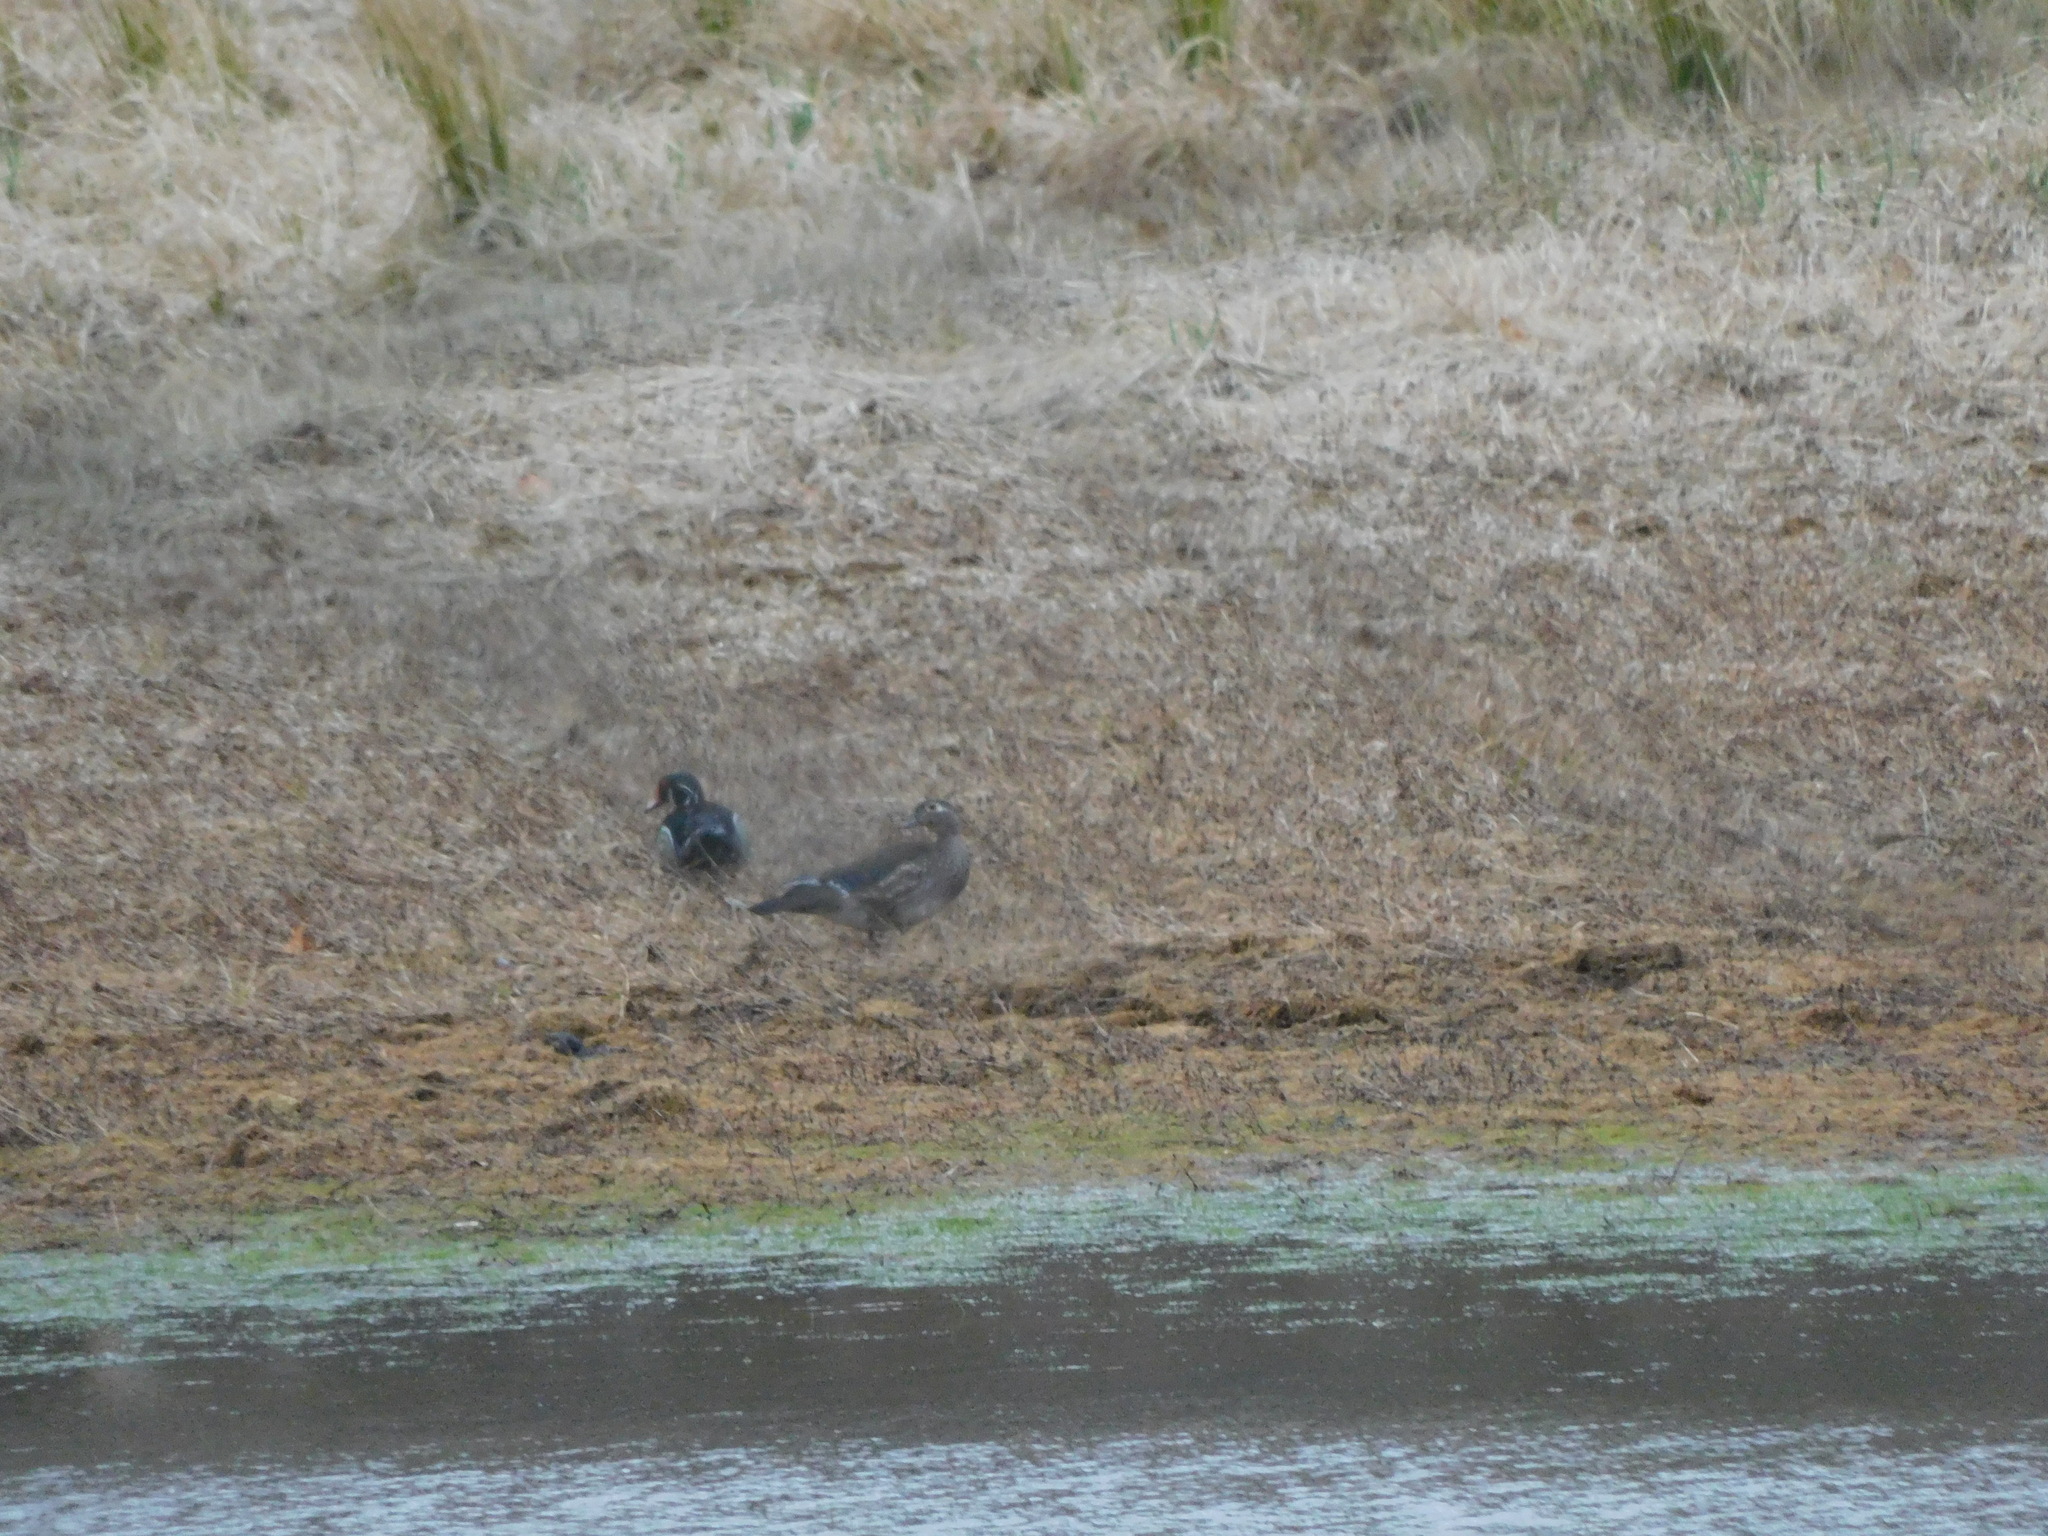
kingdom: Animalia
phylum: Chordata
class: Aves
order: Anseriformes
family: Anatidae
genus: Aix
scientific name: Aix sponsa
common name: Wood duck
